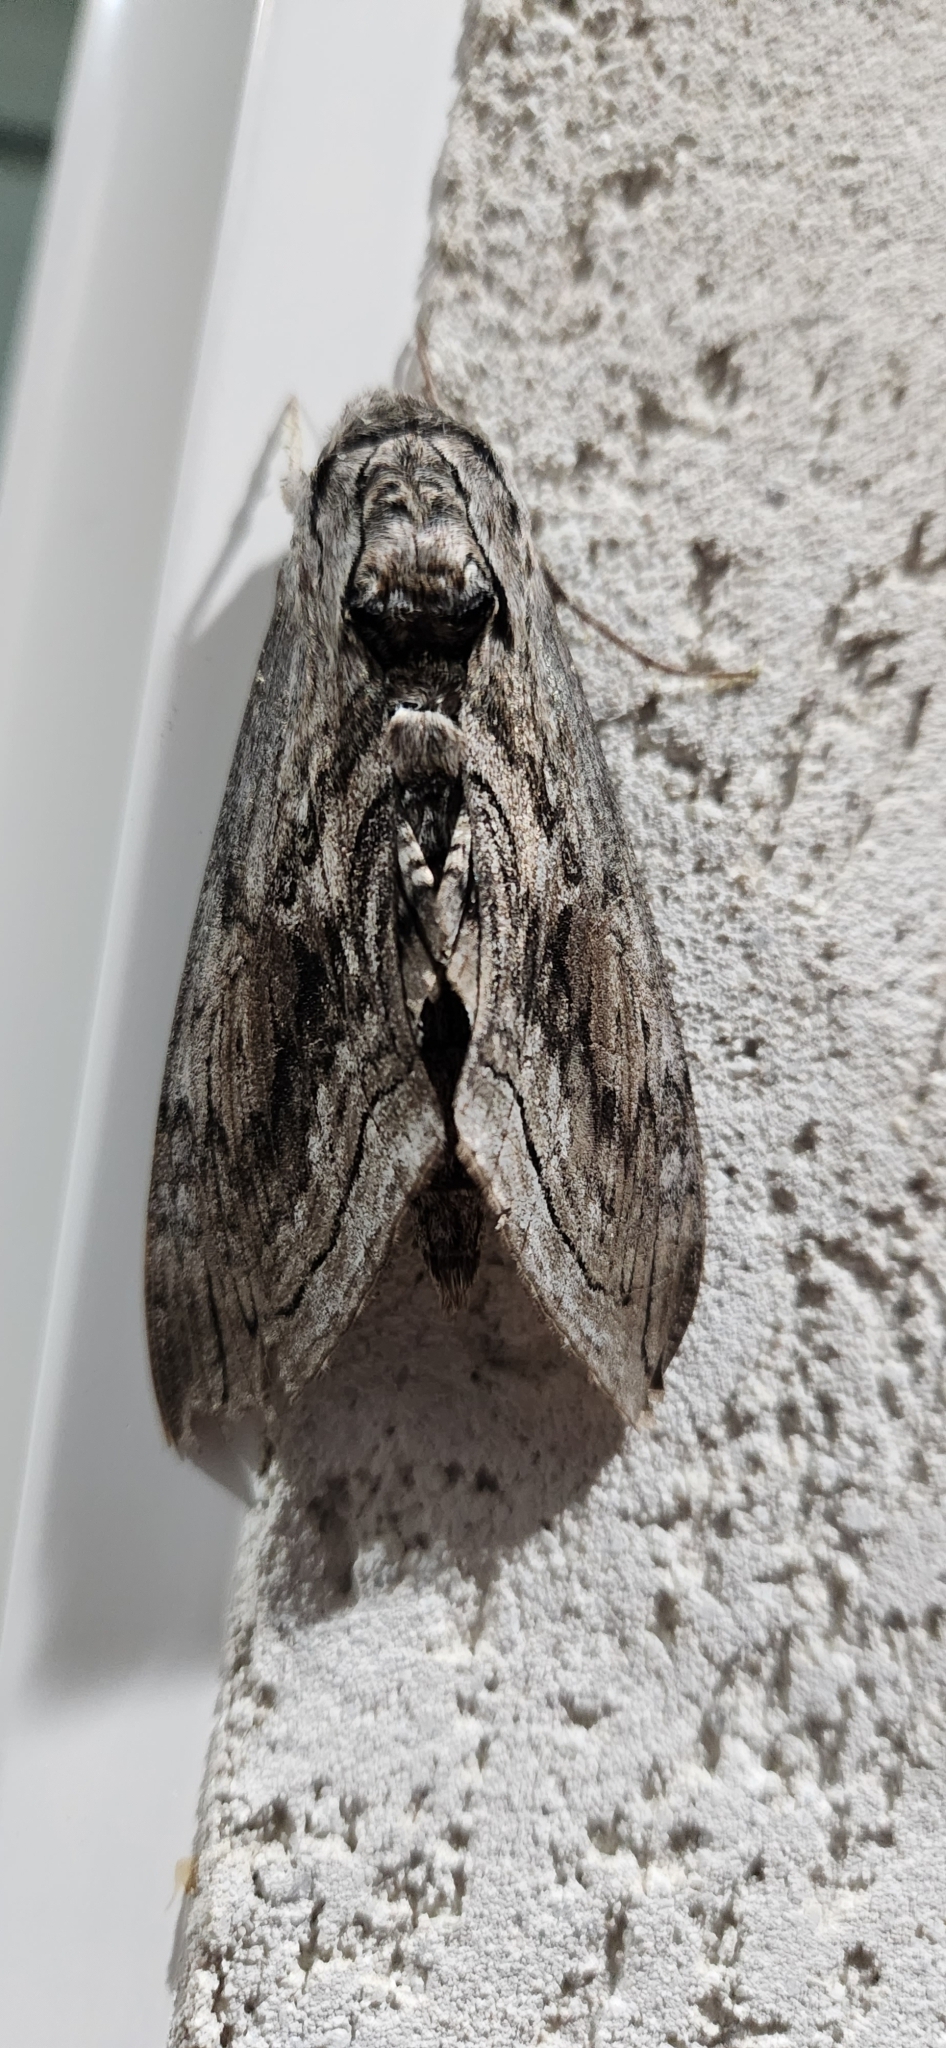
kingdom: Animalia
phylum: Arthropoda
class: Insecta
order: Lepidoptera
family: Sphingidae
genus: Manduca
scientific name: Manduca quinquemaculatus
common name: Five-spotted hawk-moth
